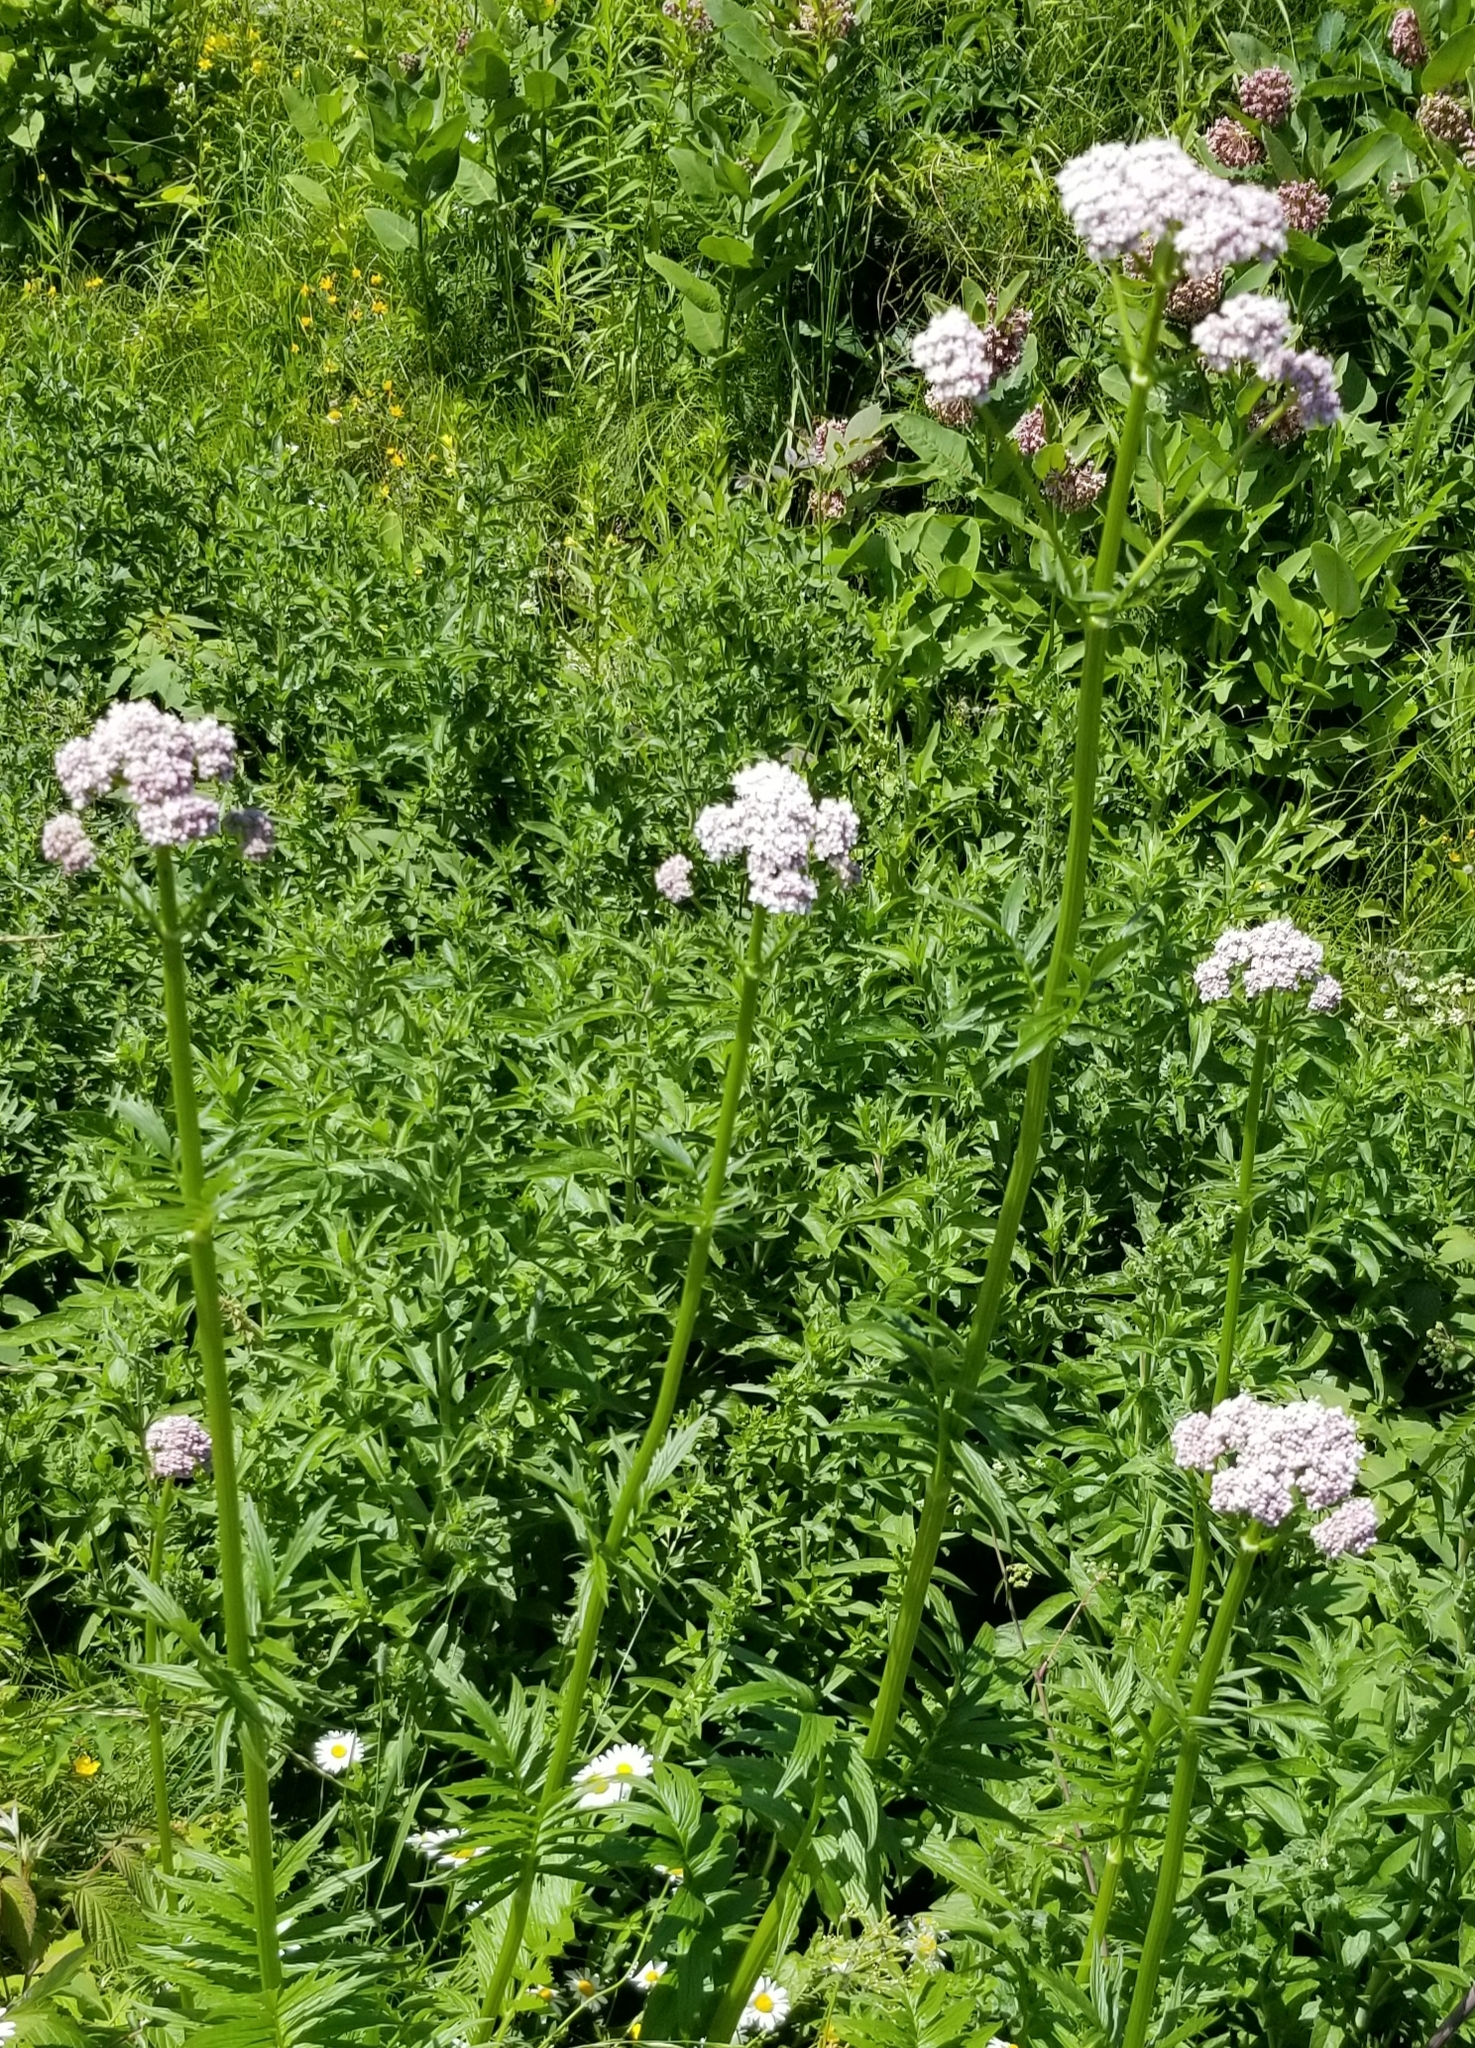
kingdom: Plantae
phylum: Tracheophyta
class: Magnoliopsida
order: Dipsacales
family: Caprifoliaceae
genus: Valeriana
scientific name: Valeriana officinalis
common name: Common valerian
